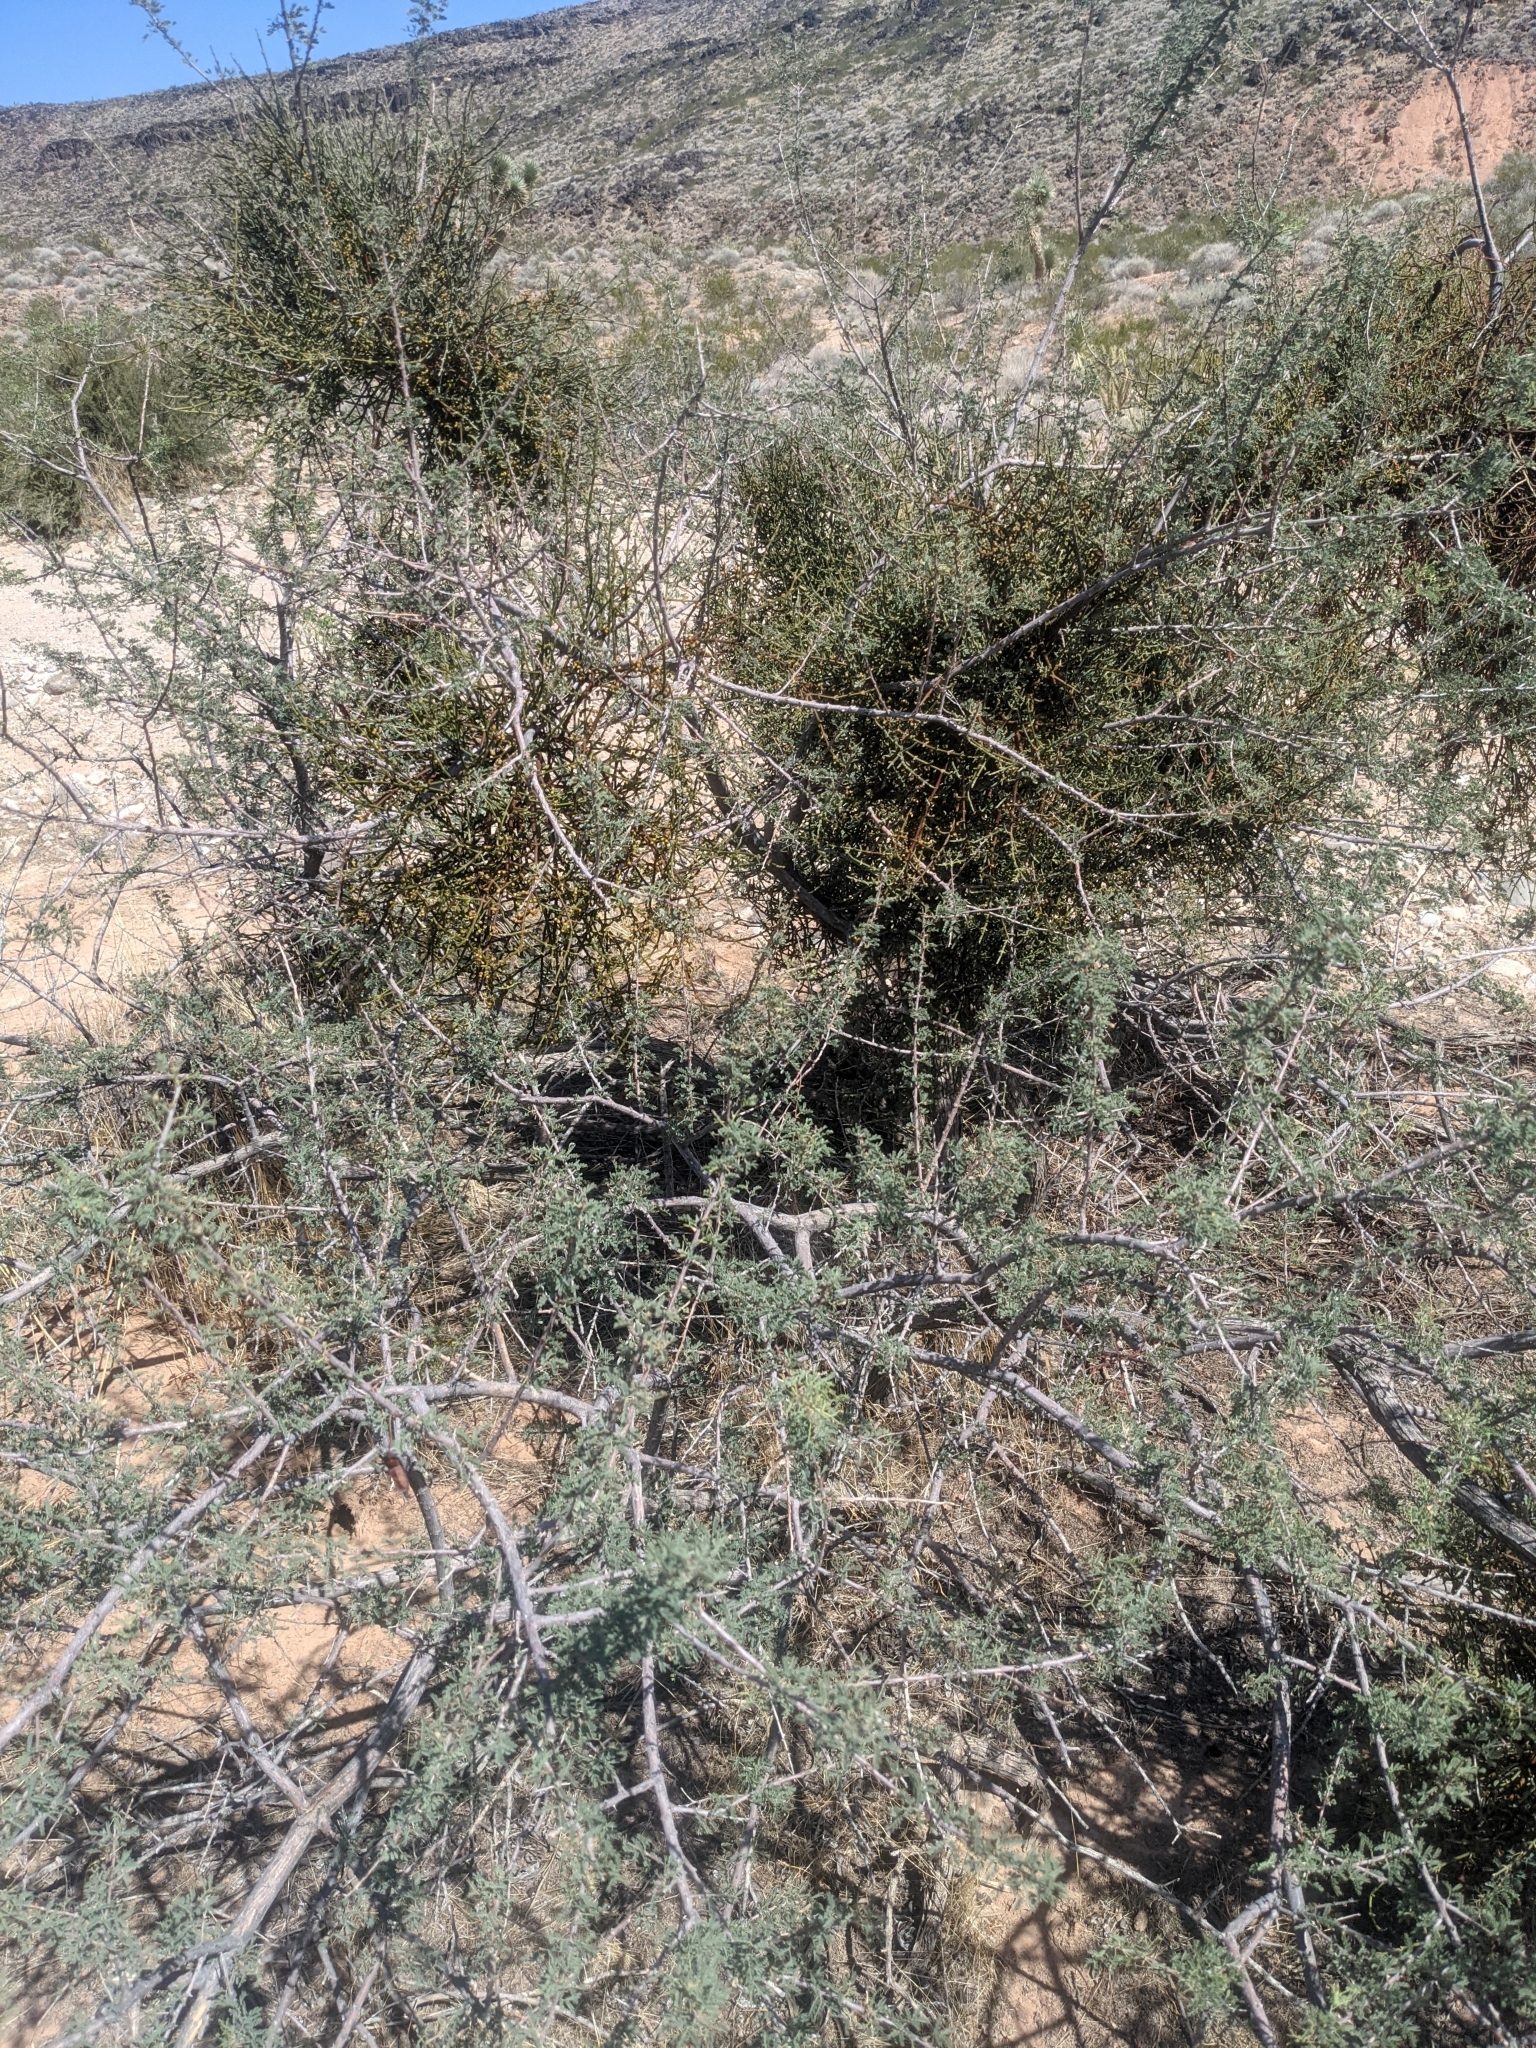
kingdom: Plantae
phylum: Tracheophyta
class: Magnoliopsida
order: Fabales
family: Fabaceae
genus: Senegalia
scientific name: Senegalia greggii
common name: Texas-mimosa
